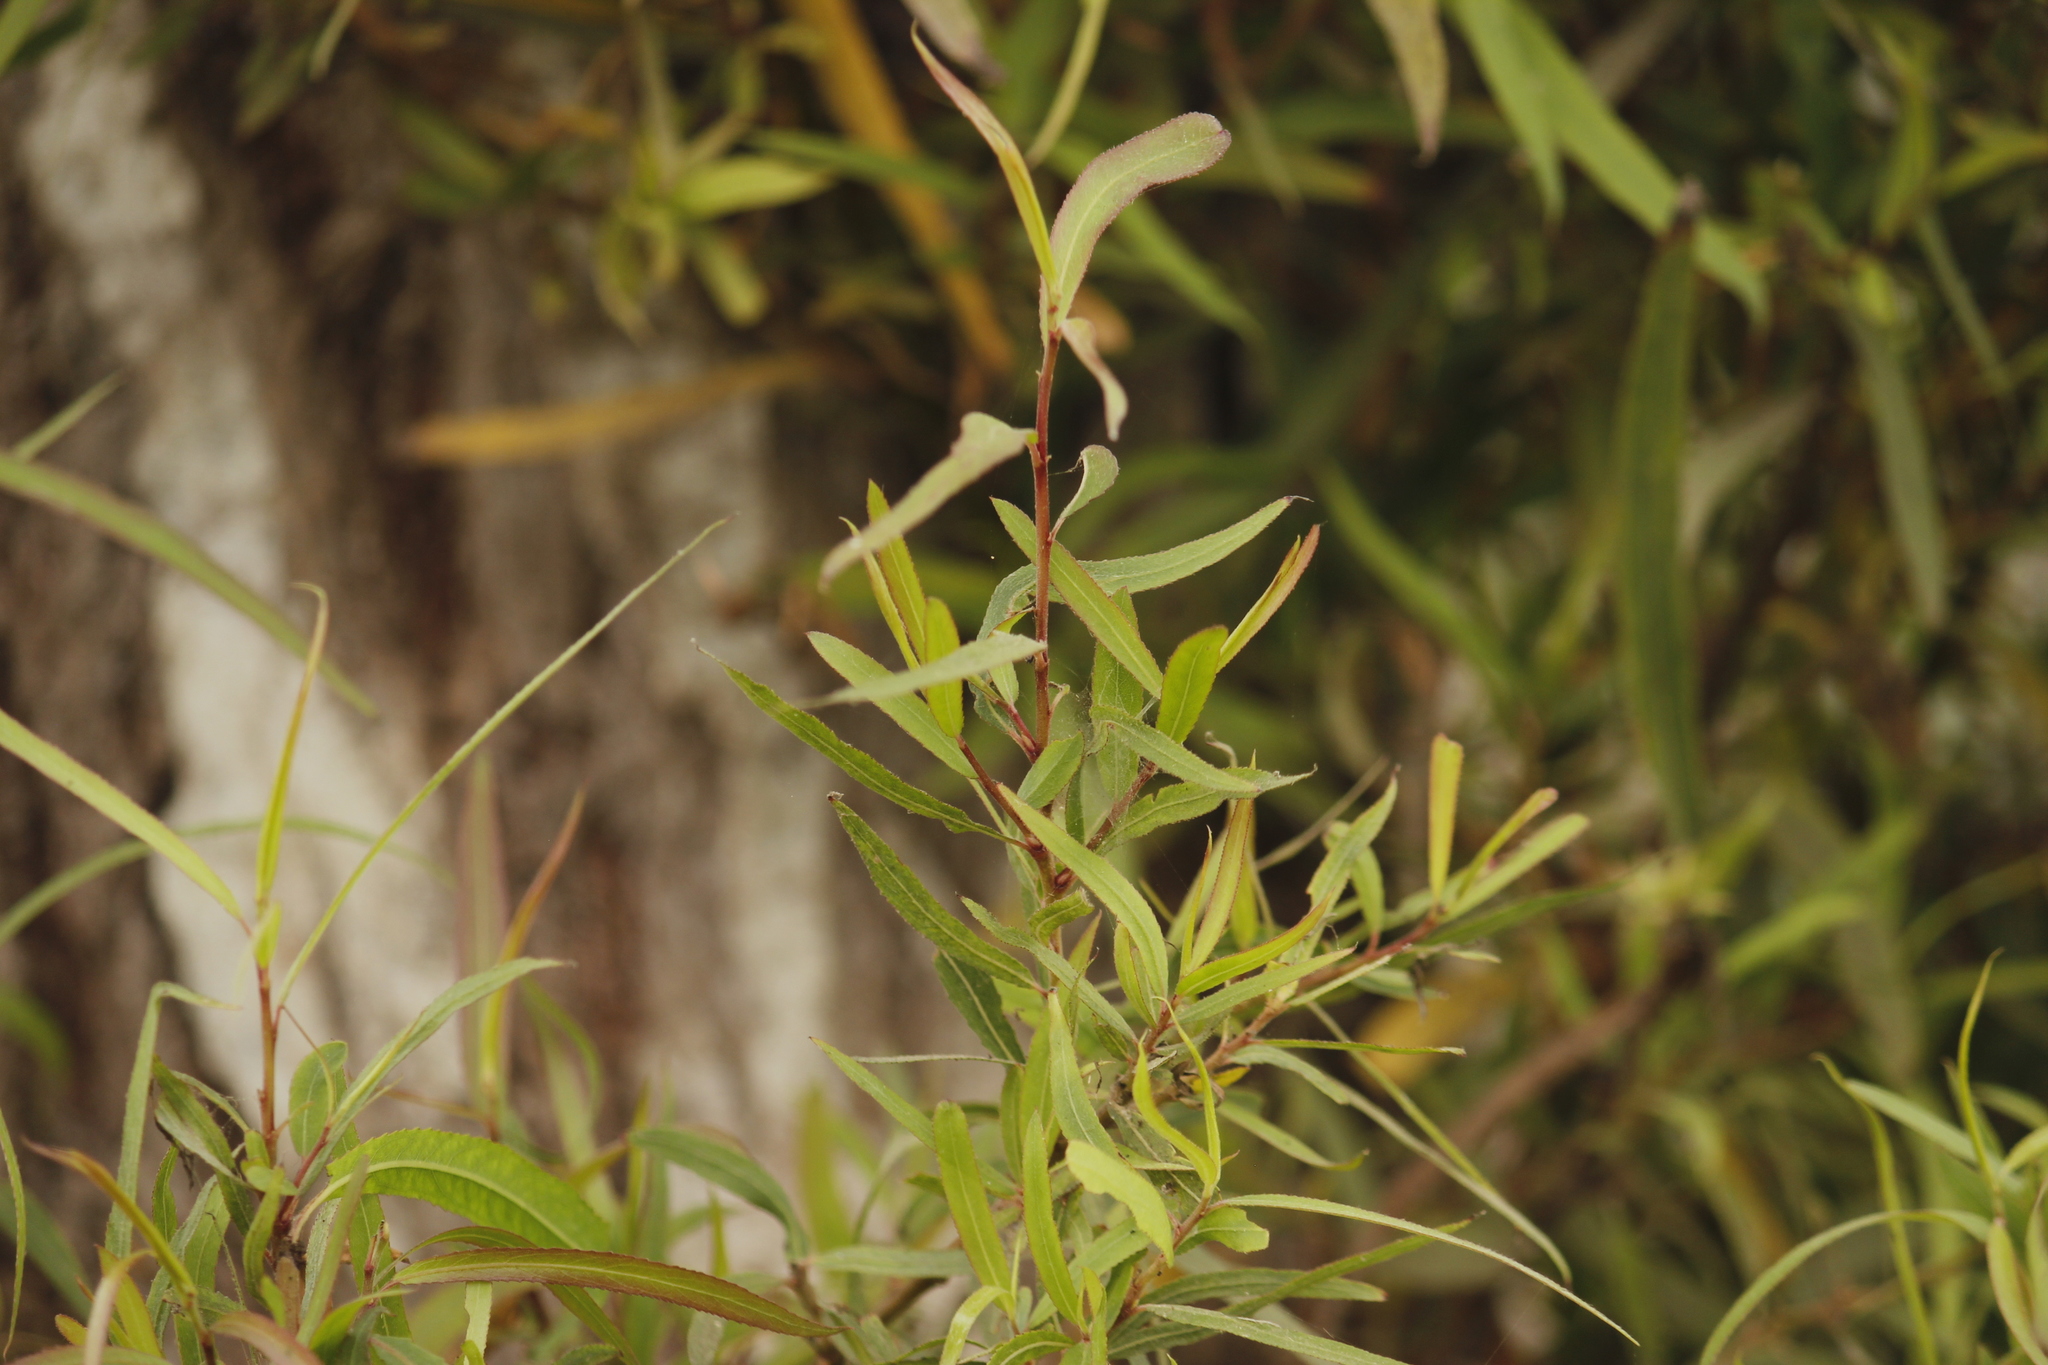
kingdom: Plantae
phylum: Tracheophyta
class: Magnoliopsida
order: Malpighiales
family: Salicaceae
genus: Salix
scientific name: Salix humboldtiana
